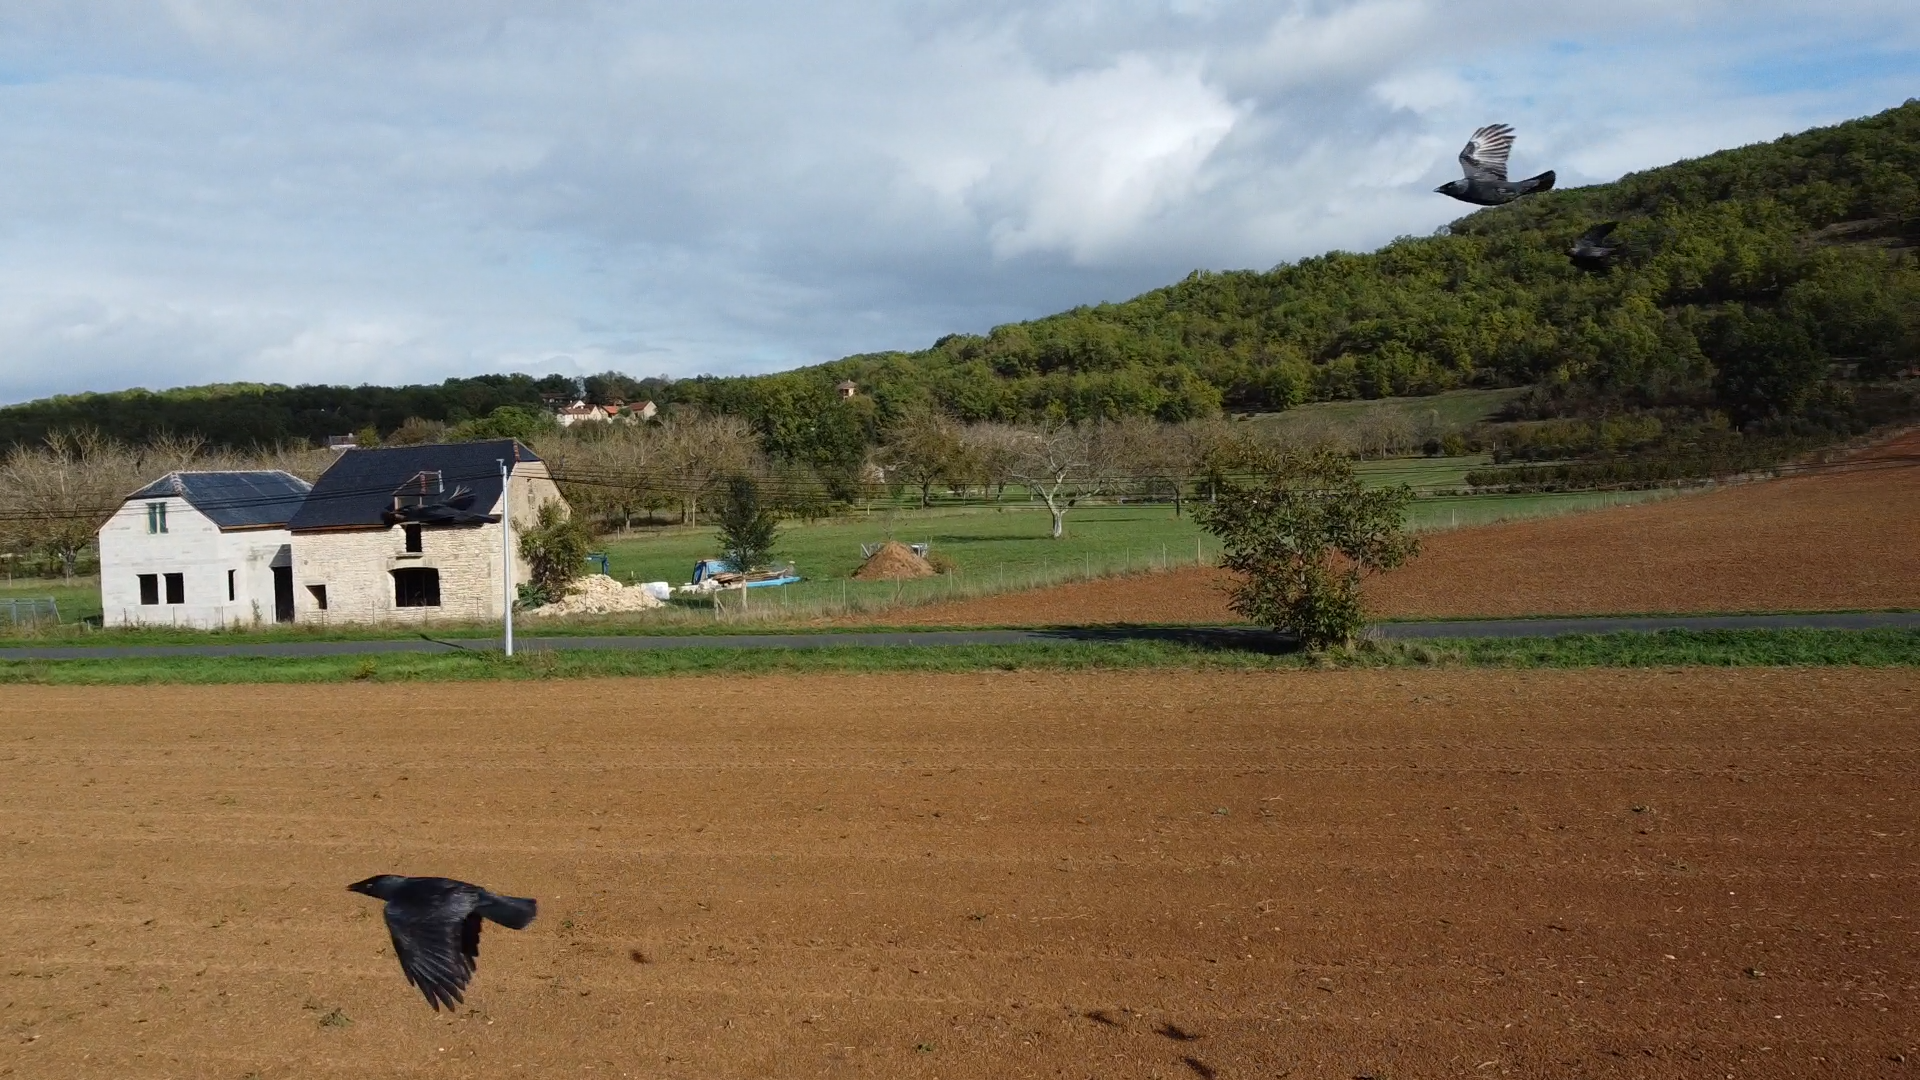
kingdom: Animalia
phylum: Chordata
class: Aves
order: Passeriformes
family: Corvidae
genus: Coloeus
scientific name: Coloeus monedula
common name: Western jackdaw
